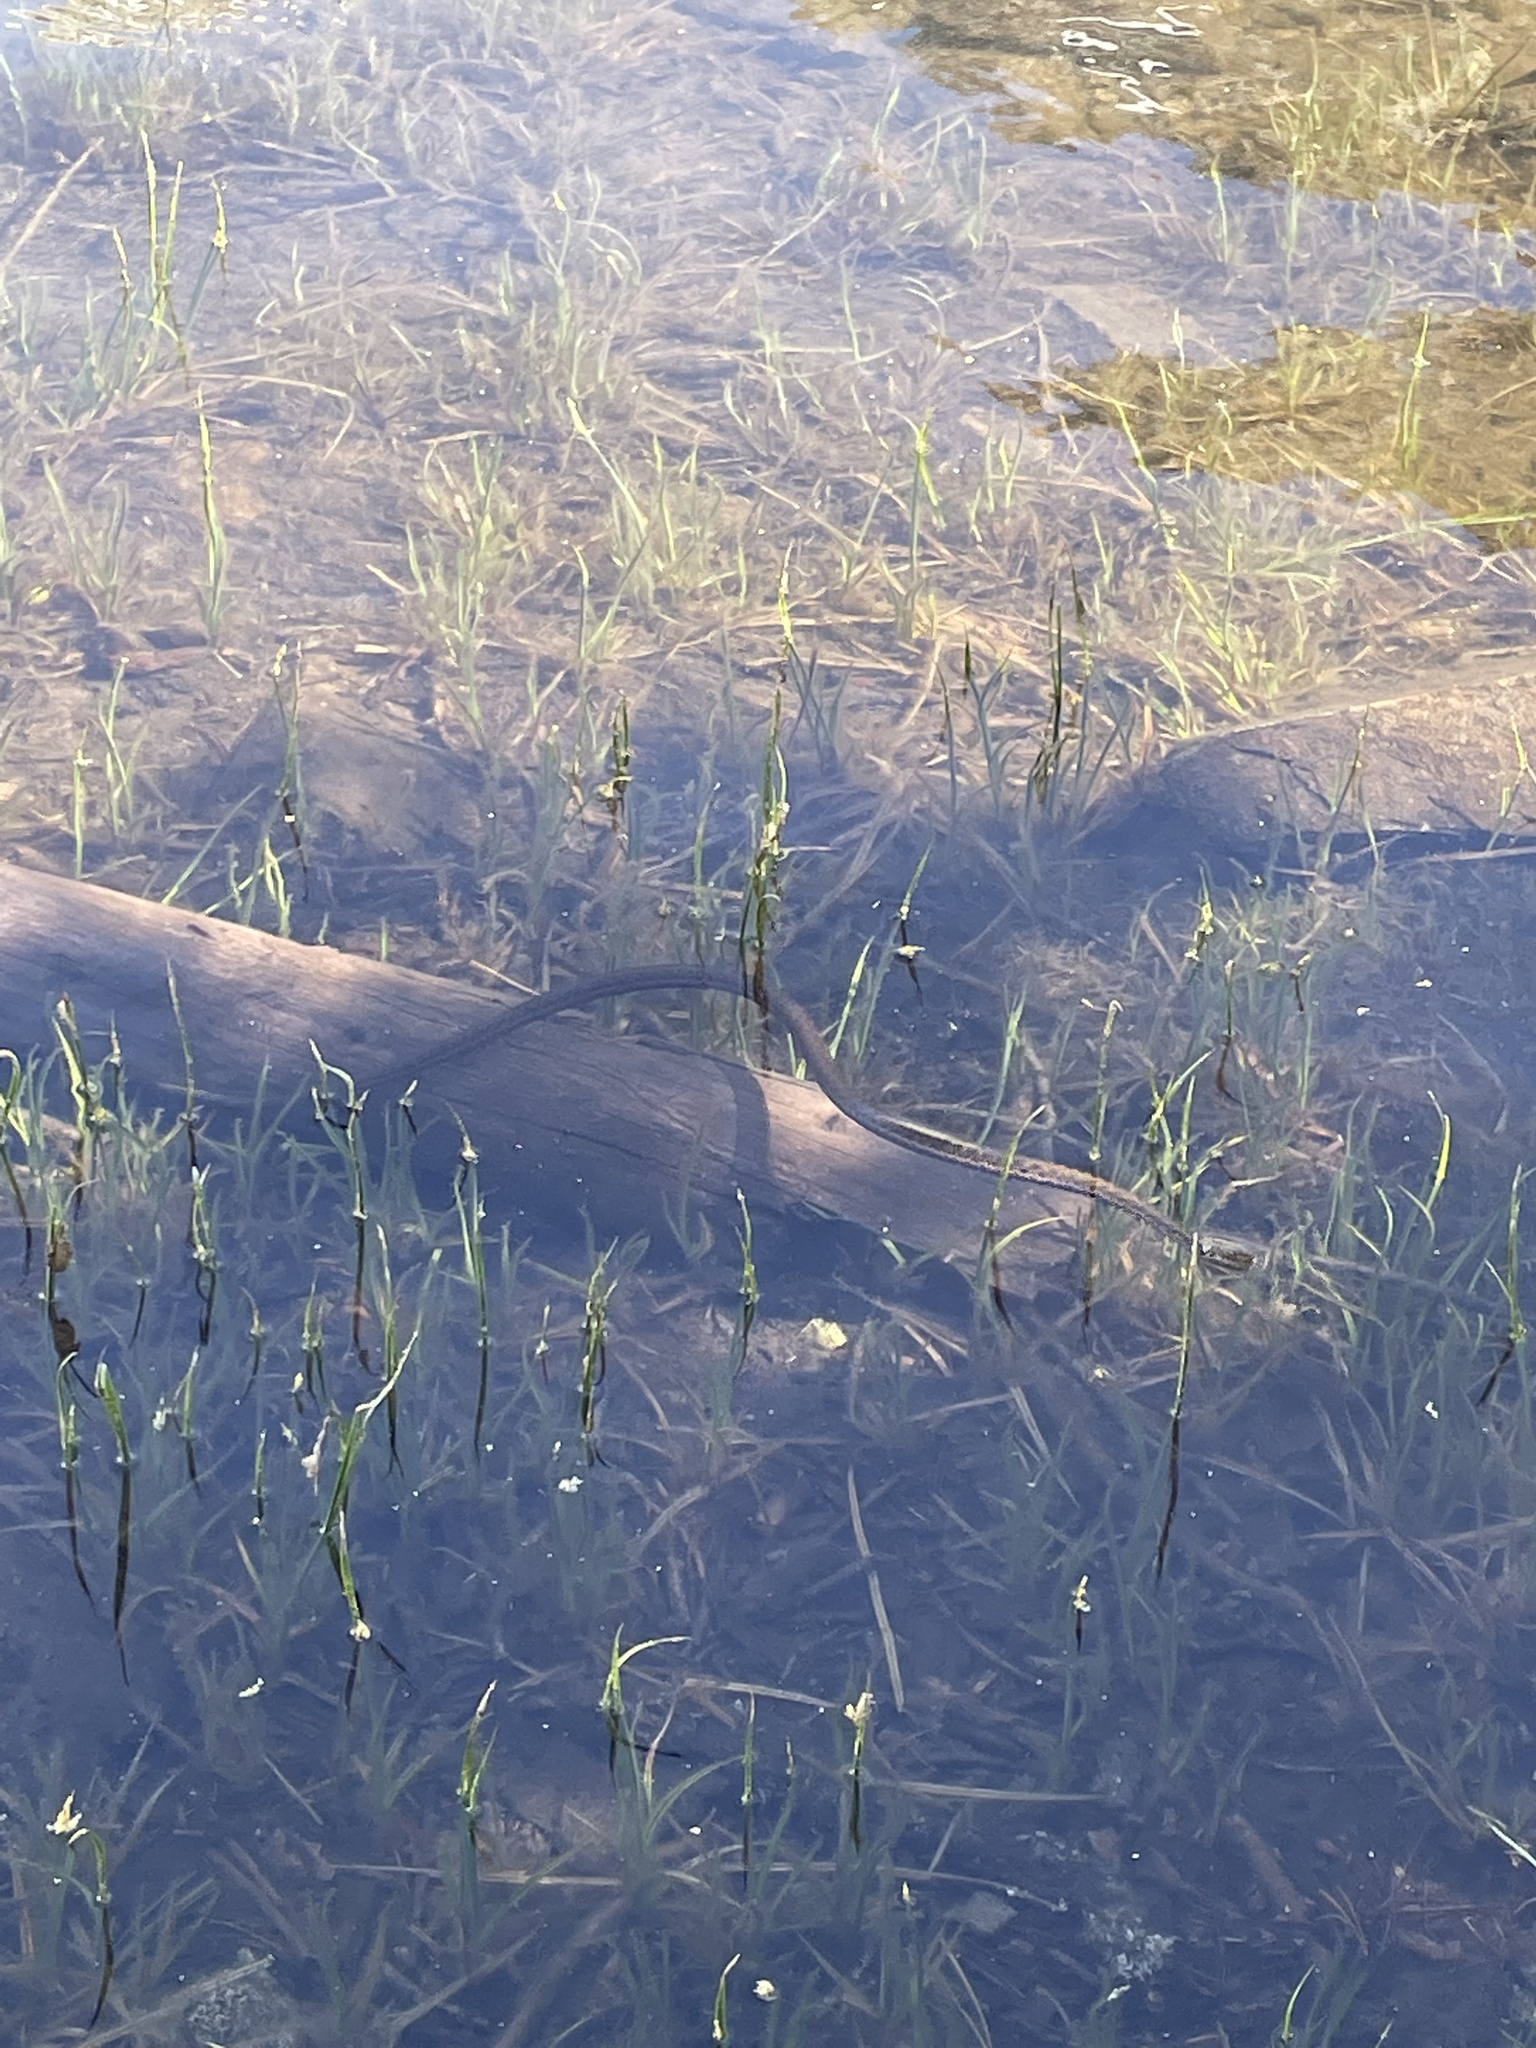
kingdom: Animalia
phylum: Chordata
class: Squamata
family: Colubridae
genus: Thamnophis
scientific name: Thamnophis couchii
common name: Western aquatic garter snake
